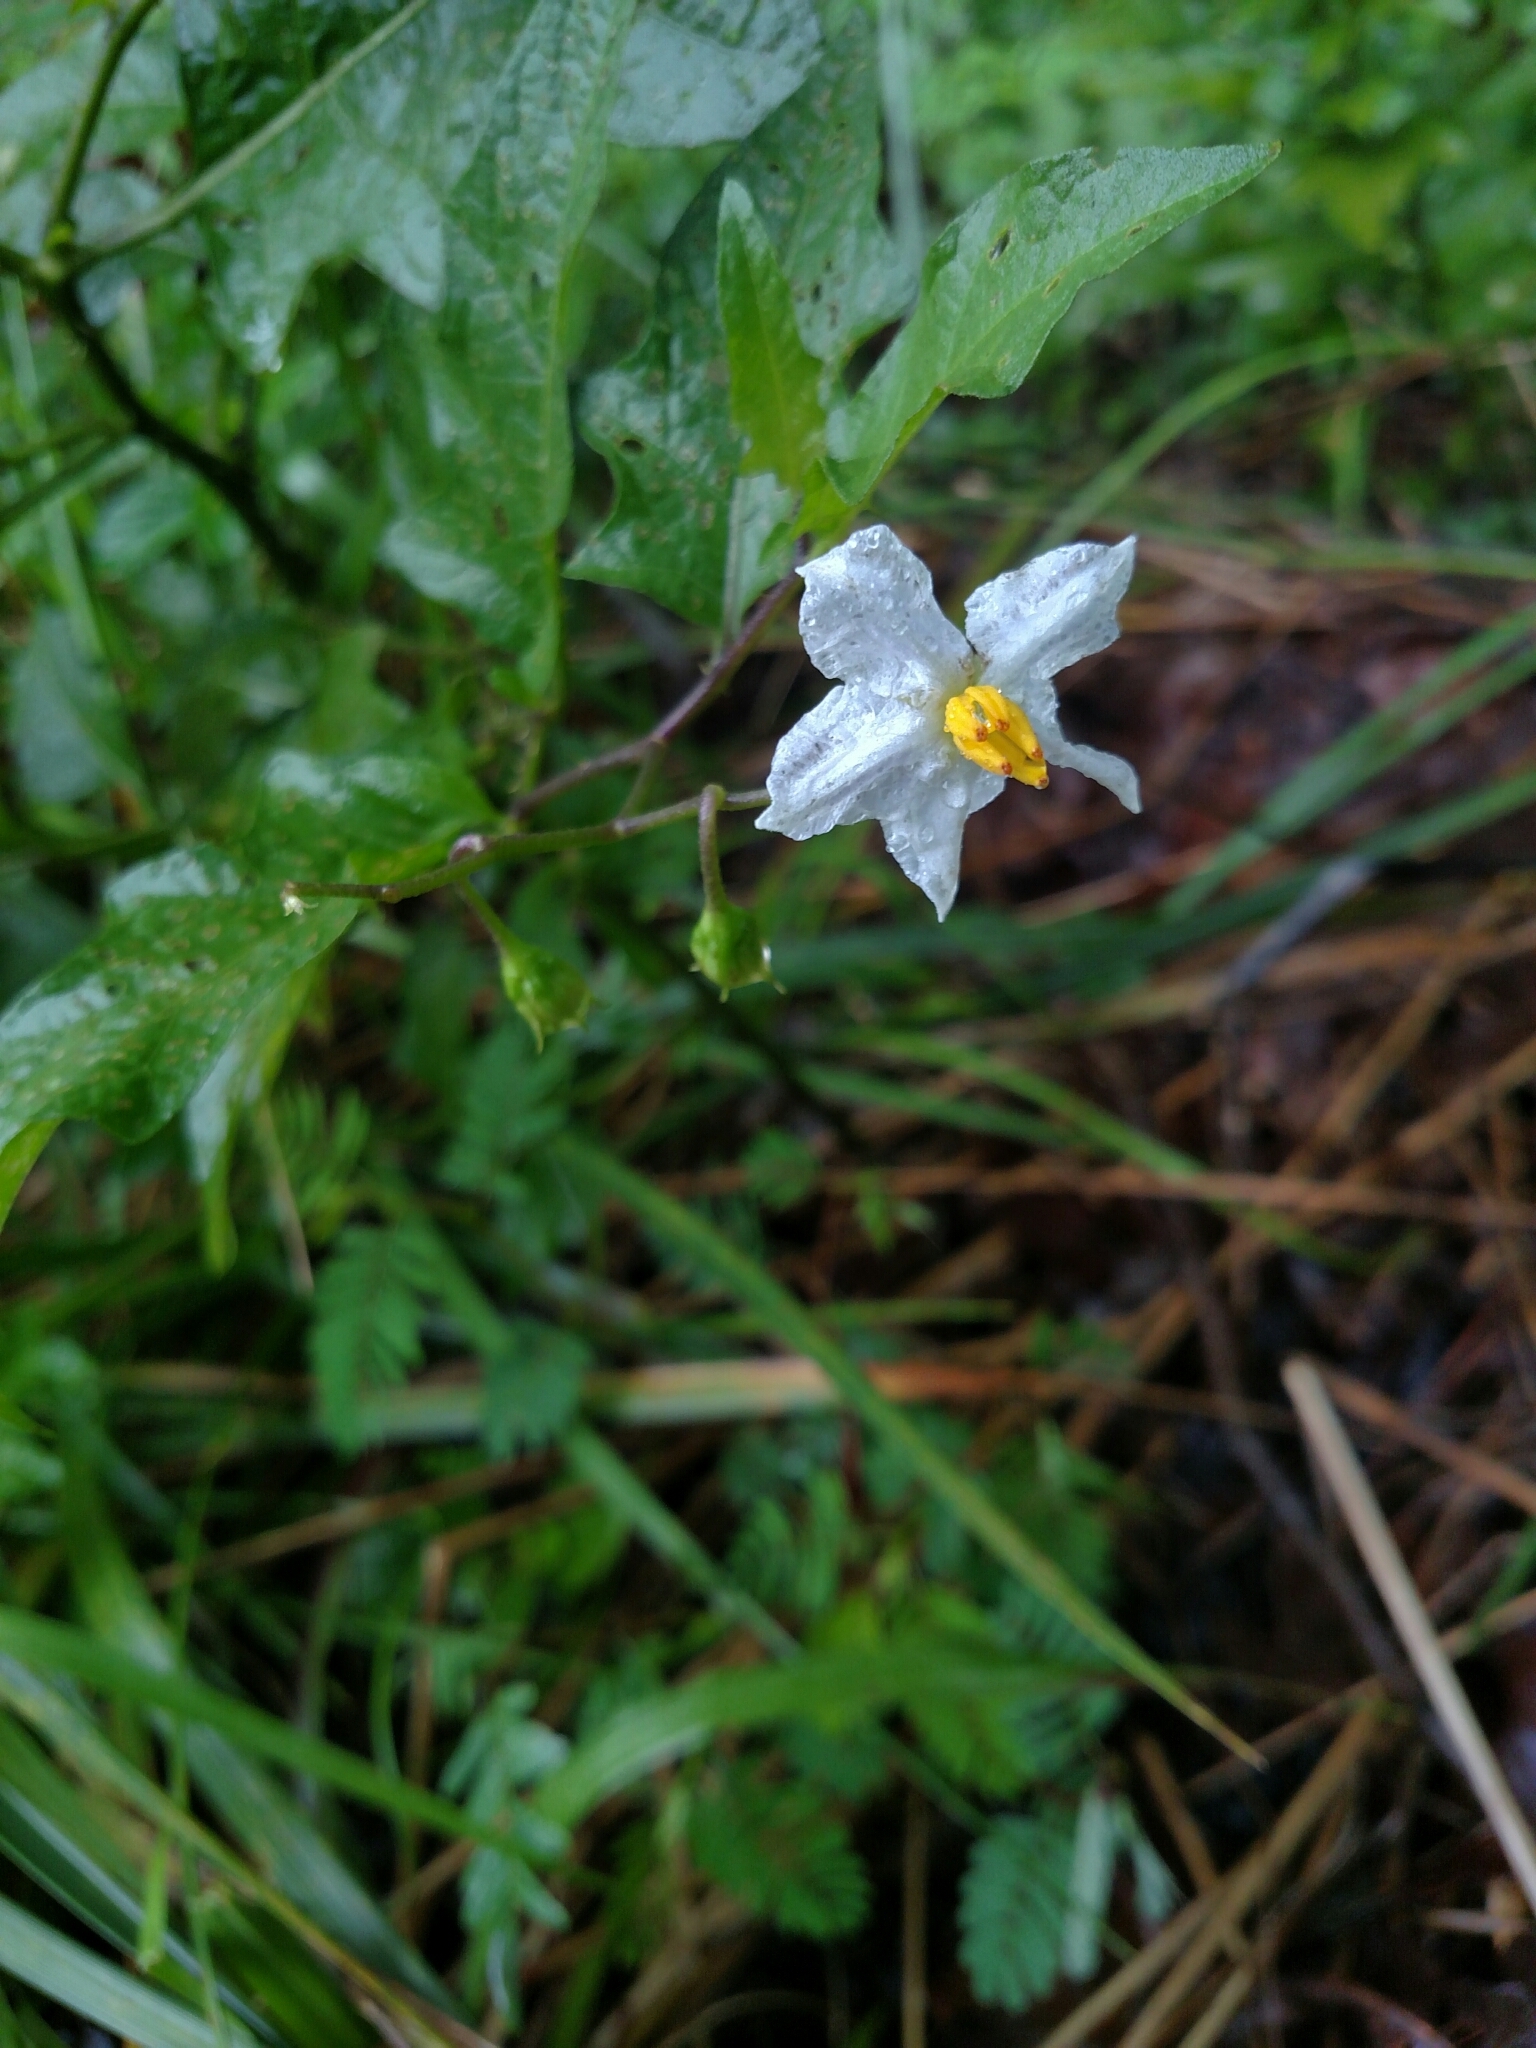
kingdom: Plantae
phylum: Tracheophyta
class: Magnoliopsida
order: Solanales
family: Solanaceae
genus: Solanum
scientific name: Solanum carolinense
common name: Horse-nettle
